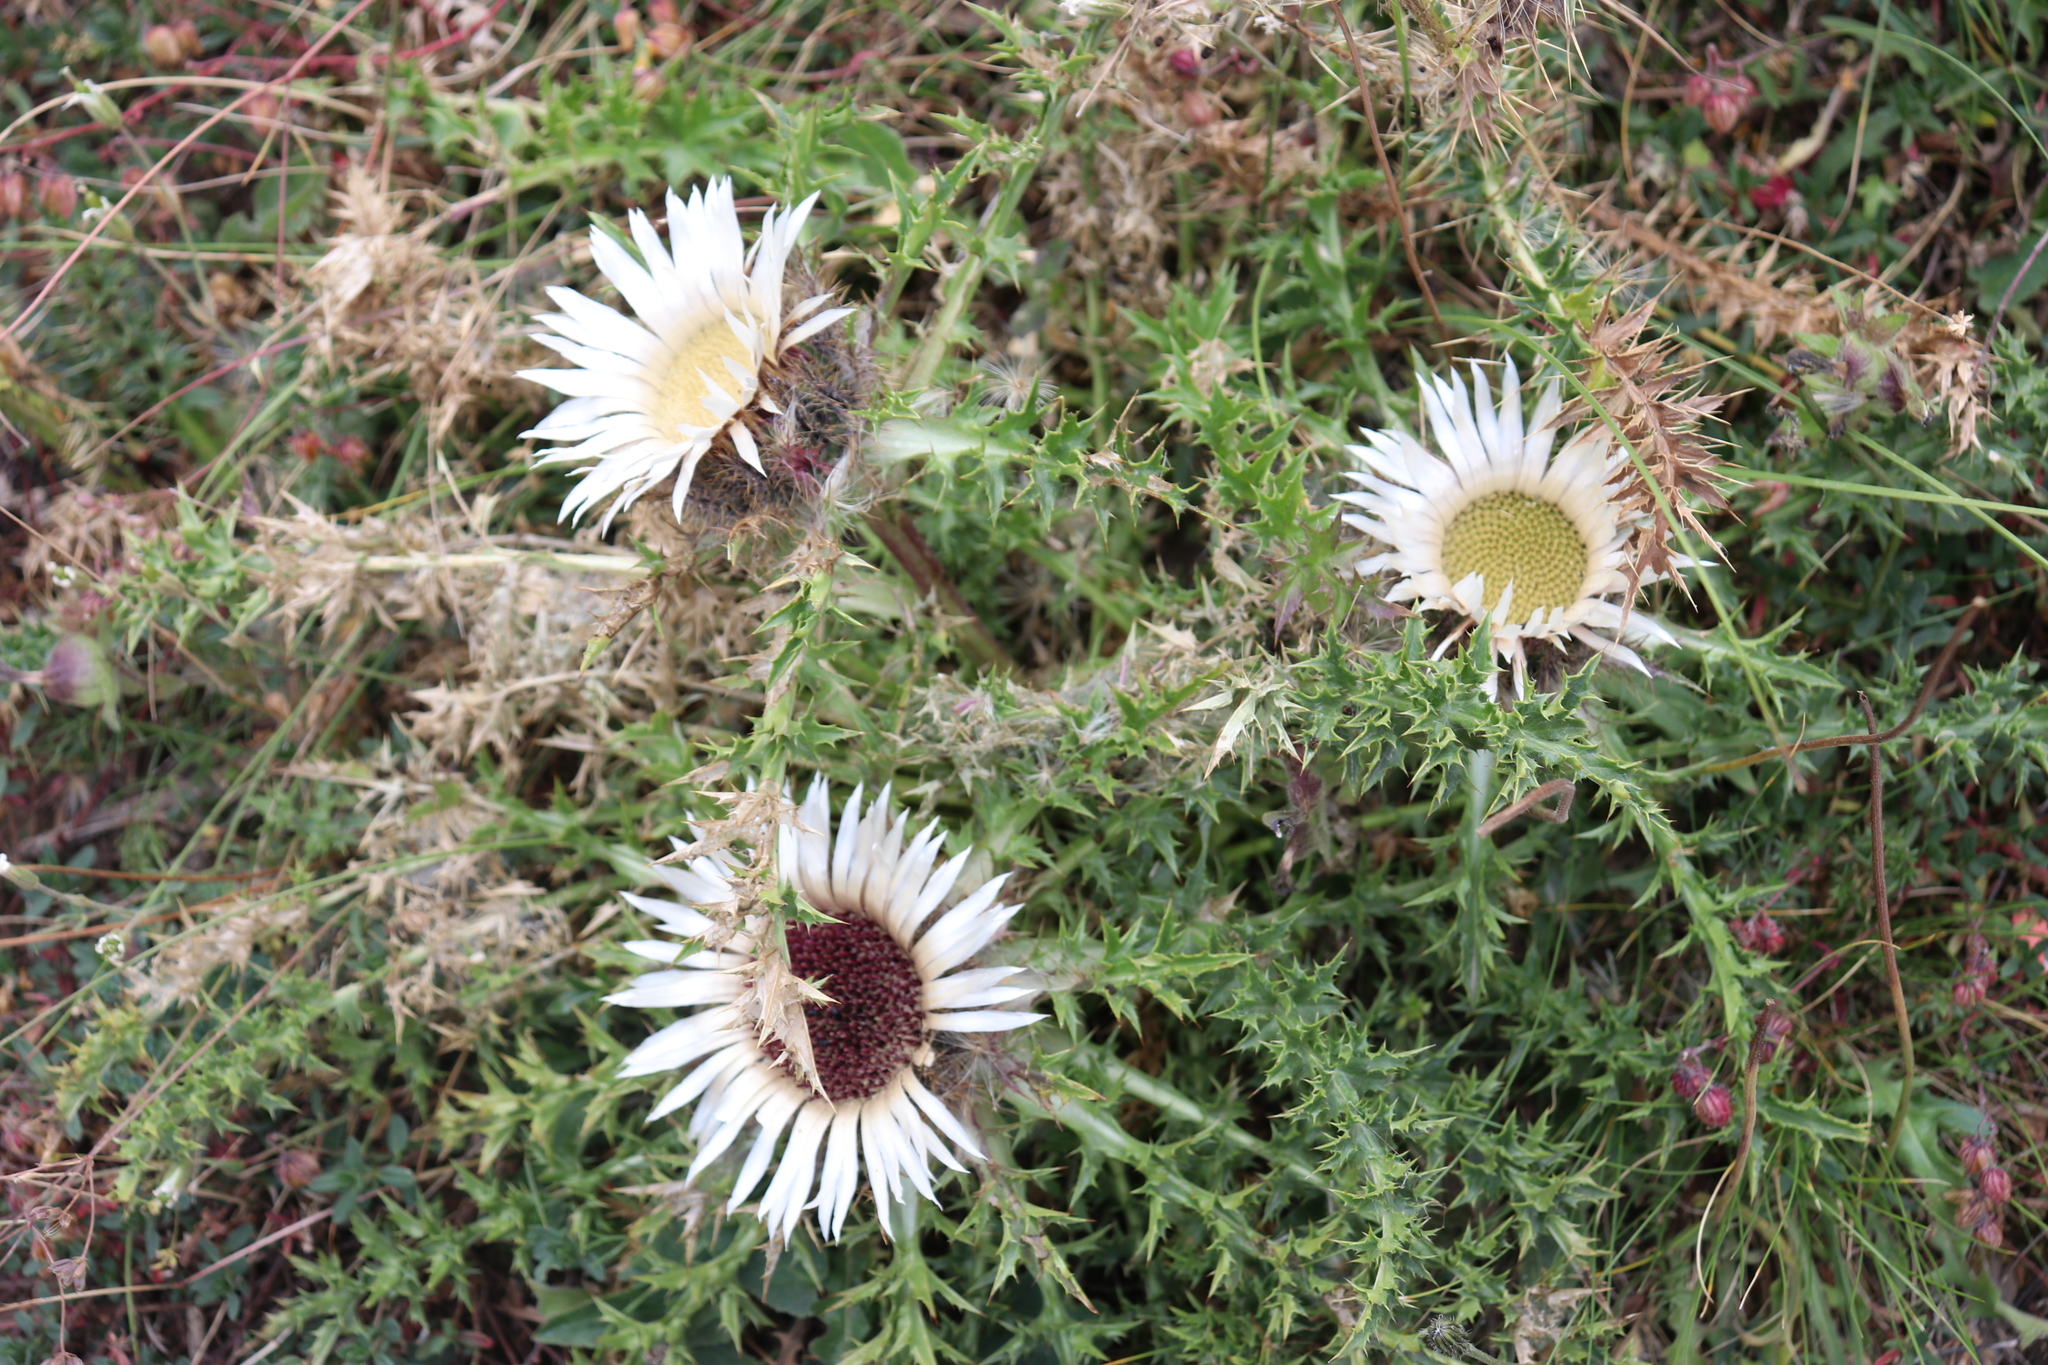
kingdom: Plantae
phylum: Tracheophyta
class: Magnoliopsida
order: Asterales
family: Asteraceae
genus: Carlina
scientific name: Carlina acaulis
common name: Stemless carline thistle
